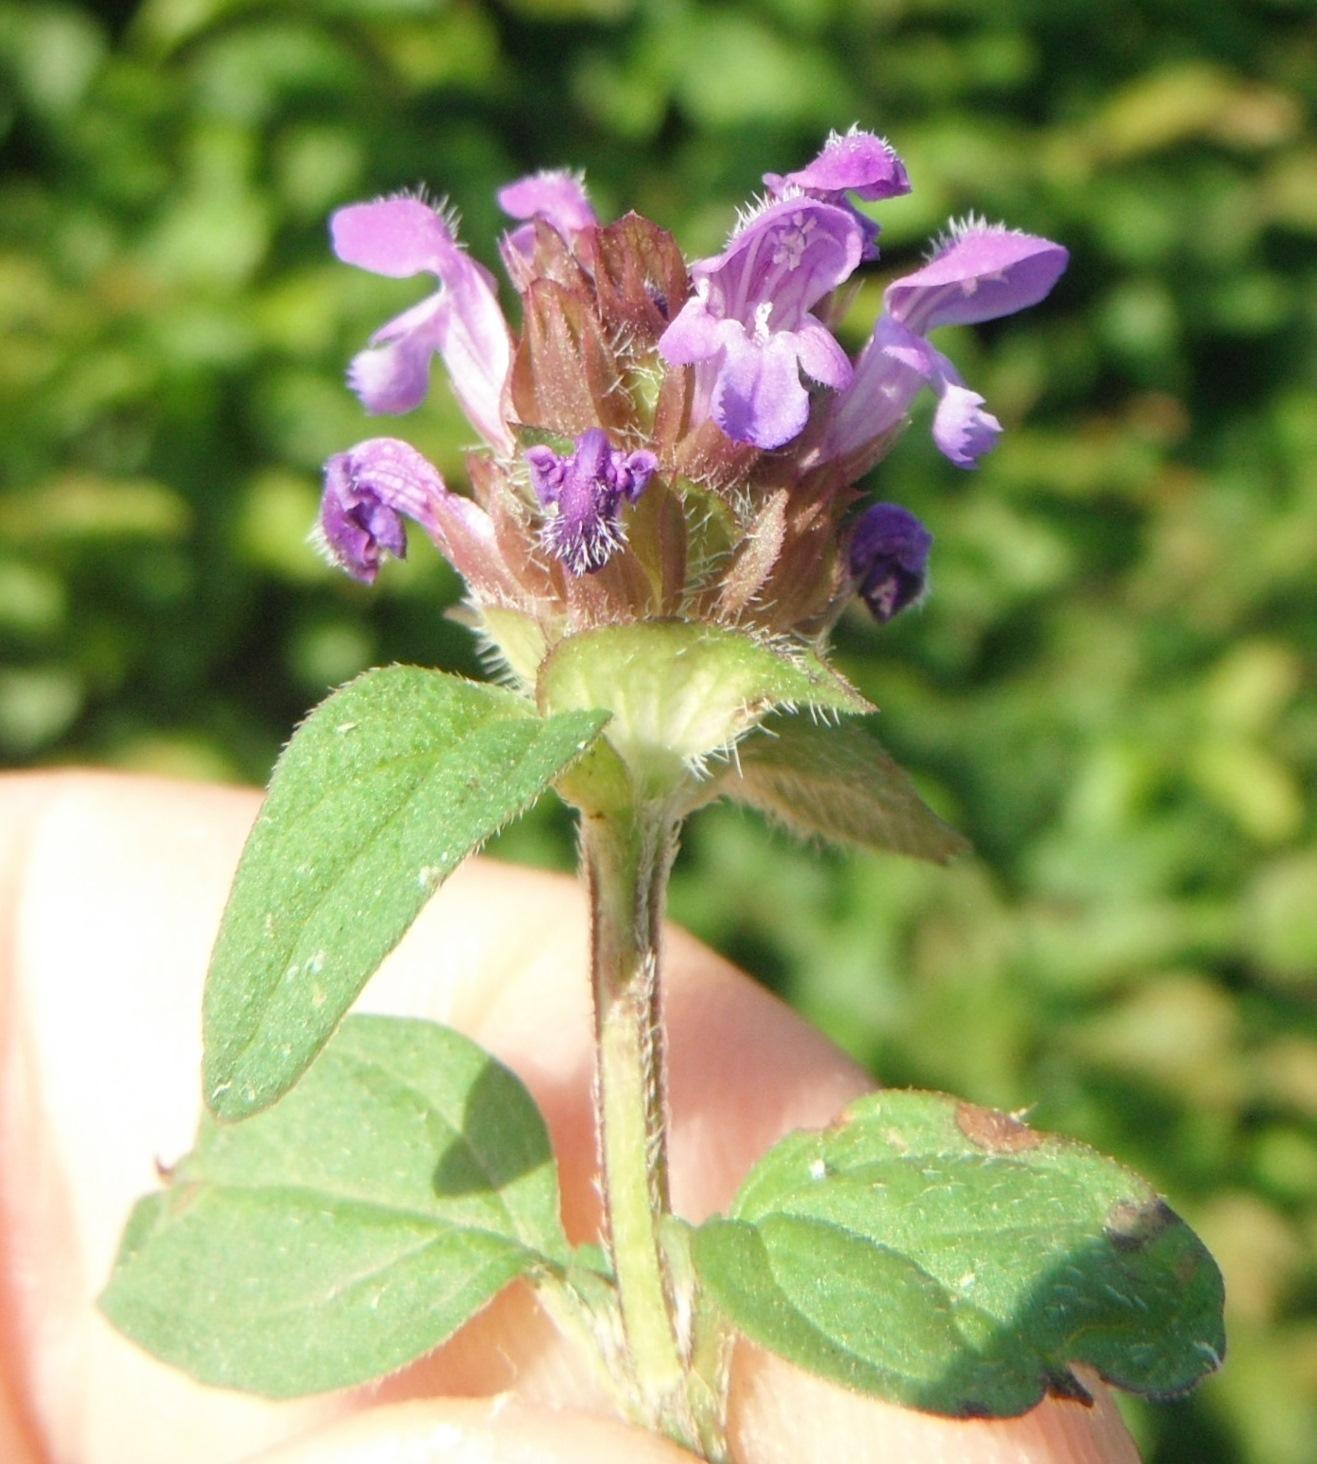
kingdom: Plantae
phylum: Tracheophyta
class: Magnoliopsida
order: Lamiales
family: Lamiaceae
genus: Prunella
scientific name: Prunella vulgaris
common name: Heal-all
